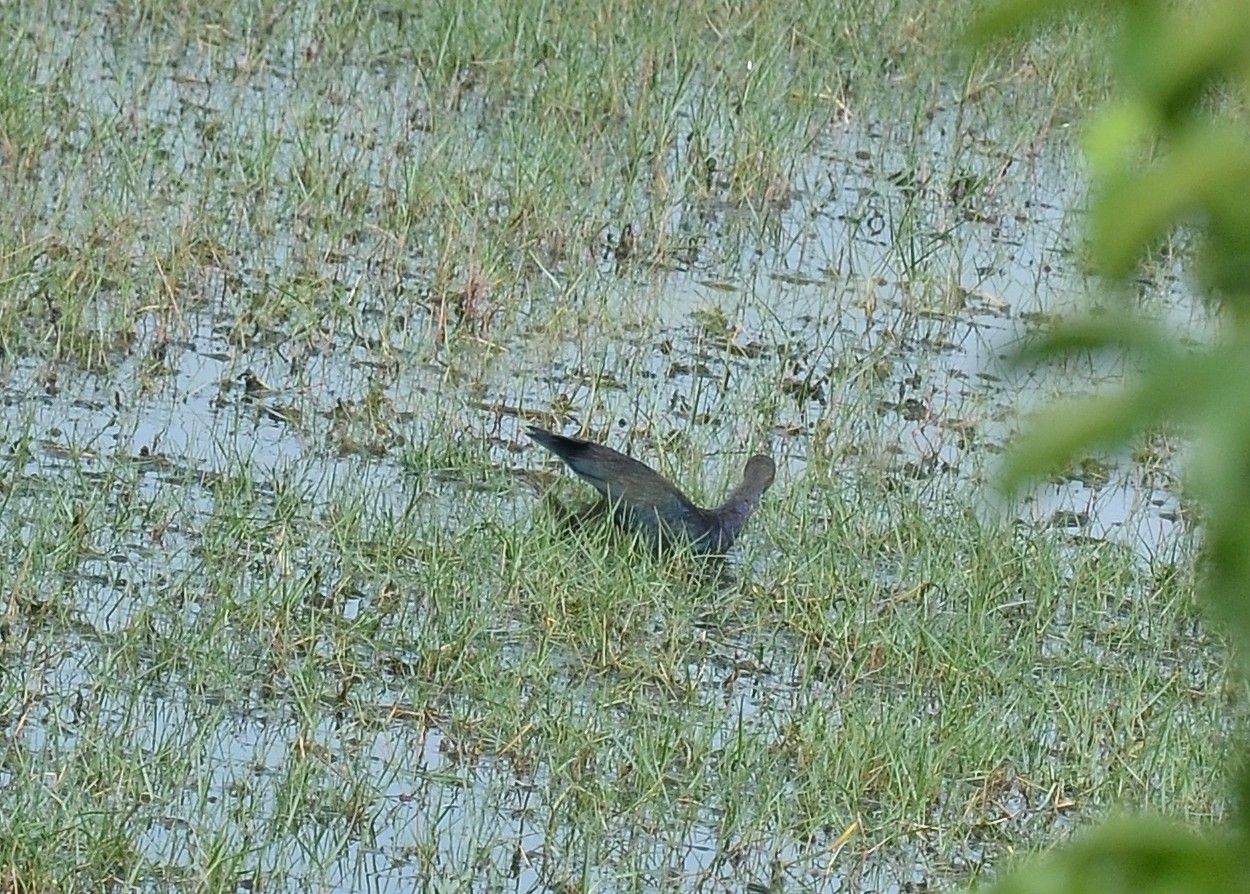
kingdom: Animalia
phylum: Chordata
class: Aves
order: Gruiformes
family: Rallidae
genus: Porphyrio
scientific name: Porphyrio porphyrio
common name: Purple swamphen
